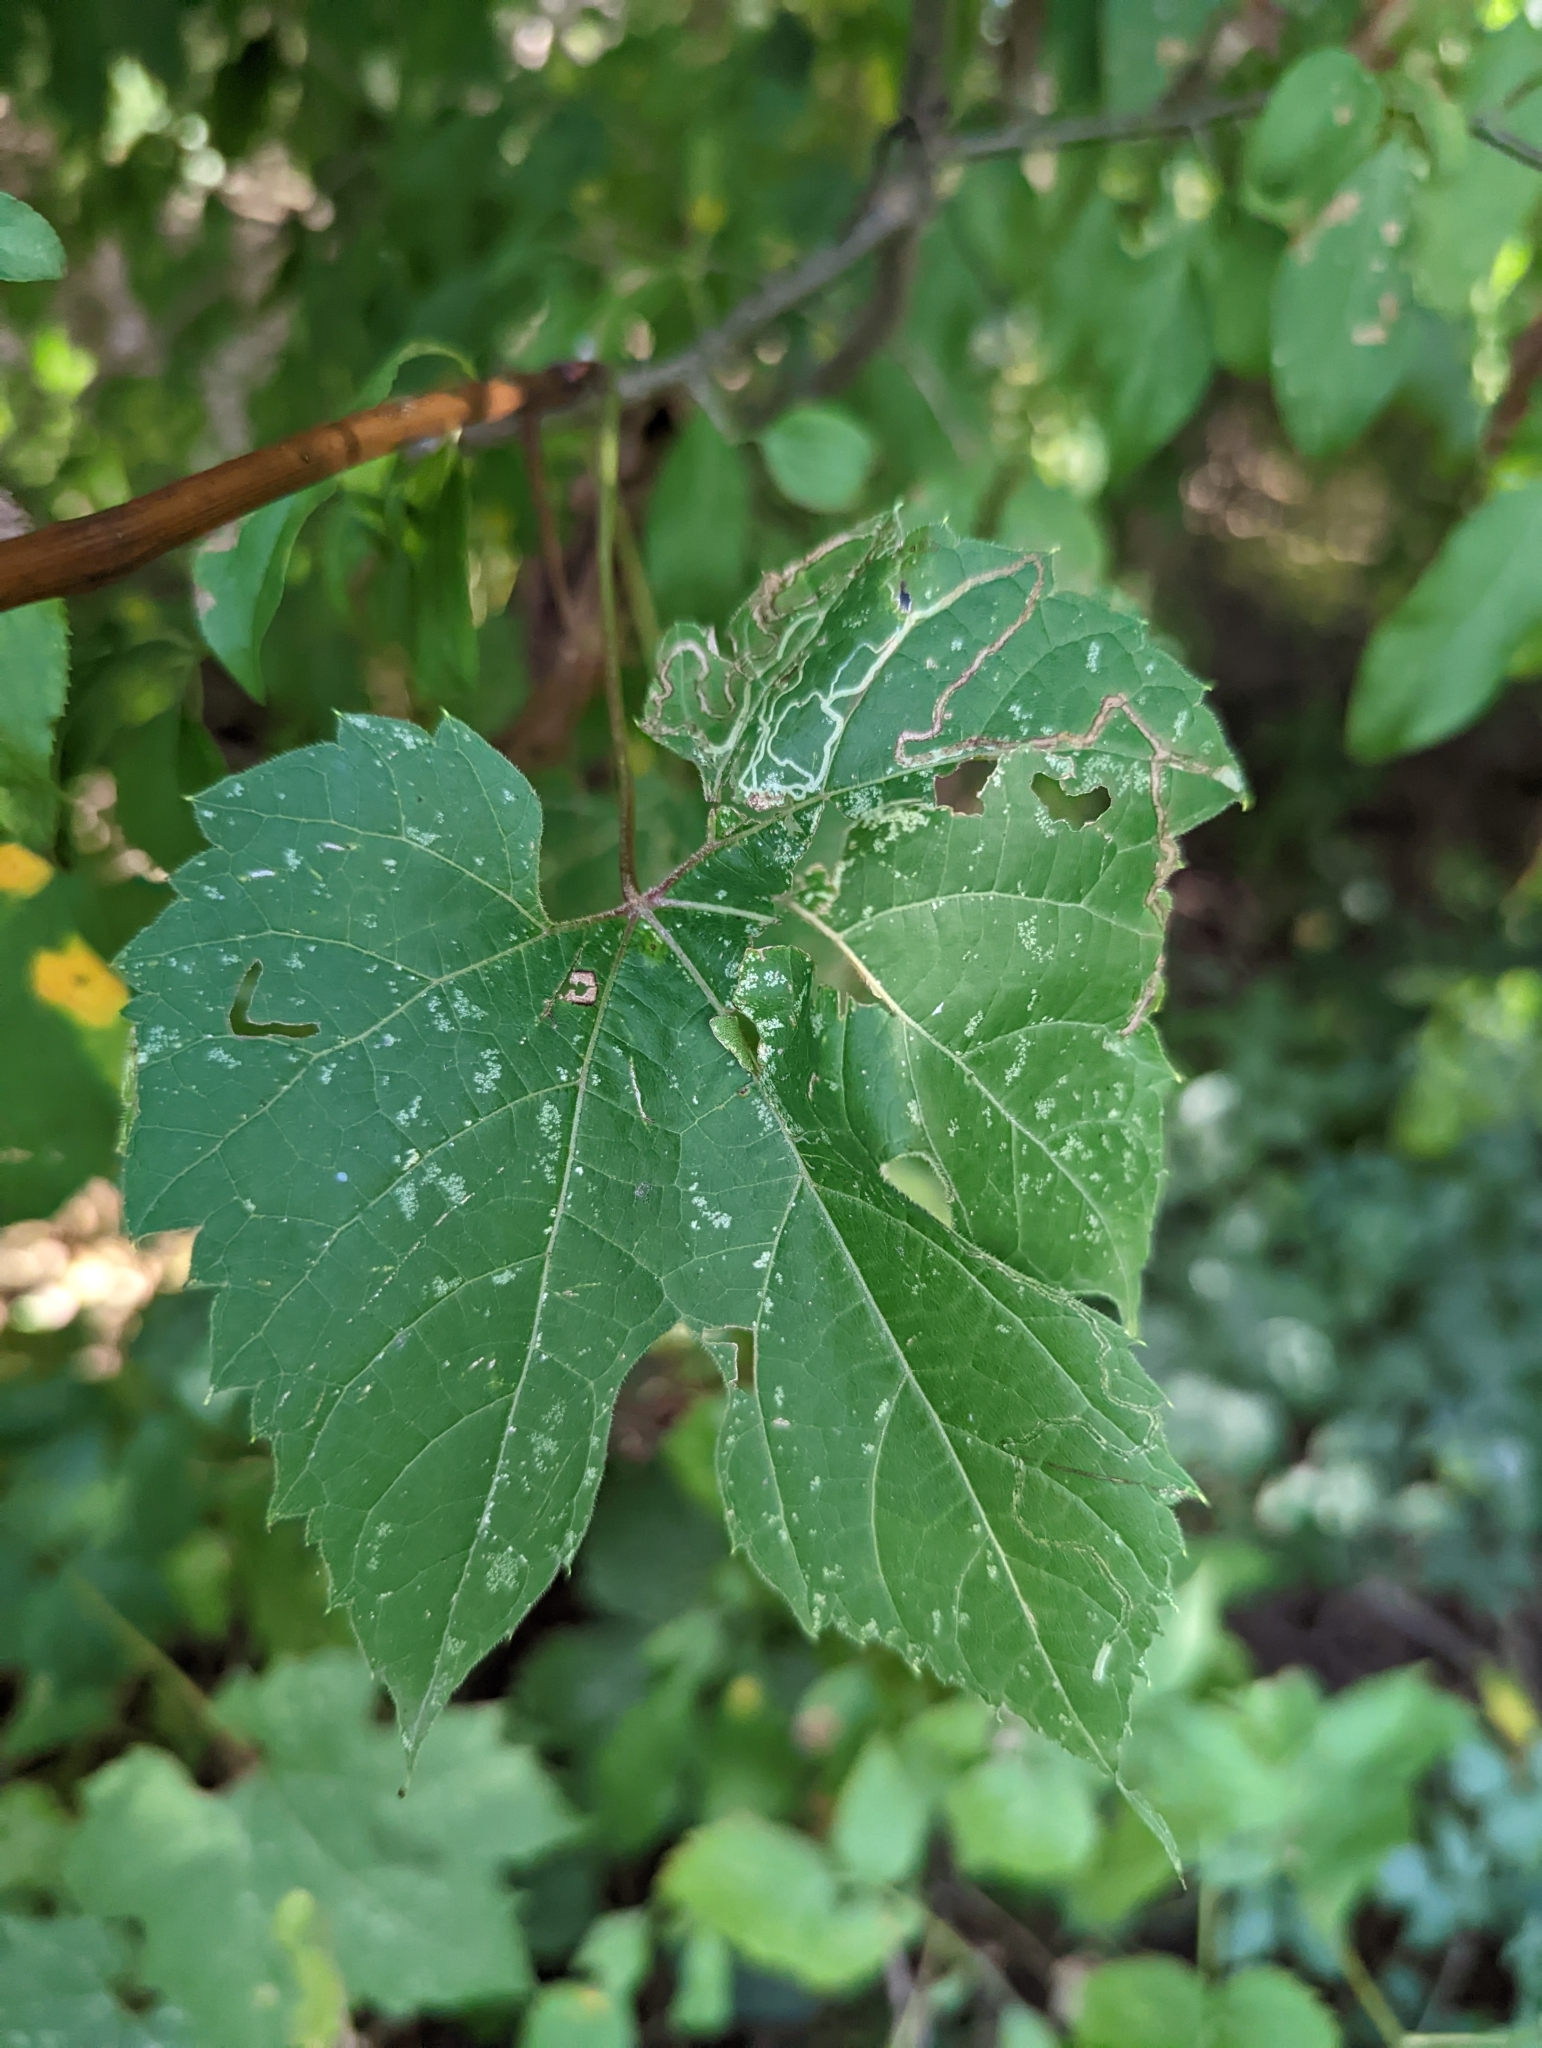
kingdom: Animalia
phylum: Arthropoda
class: Insecta
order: Lepidoptera
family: Gracillariidae
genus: Phyllocnistis
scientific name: Phyllocnistis vitifoliella
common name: Grape leaf-miner moth
